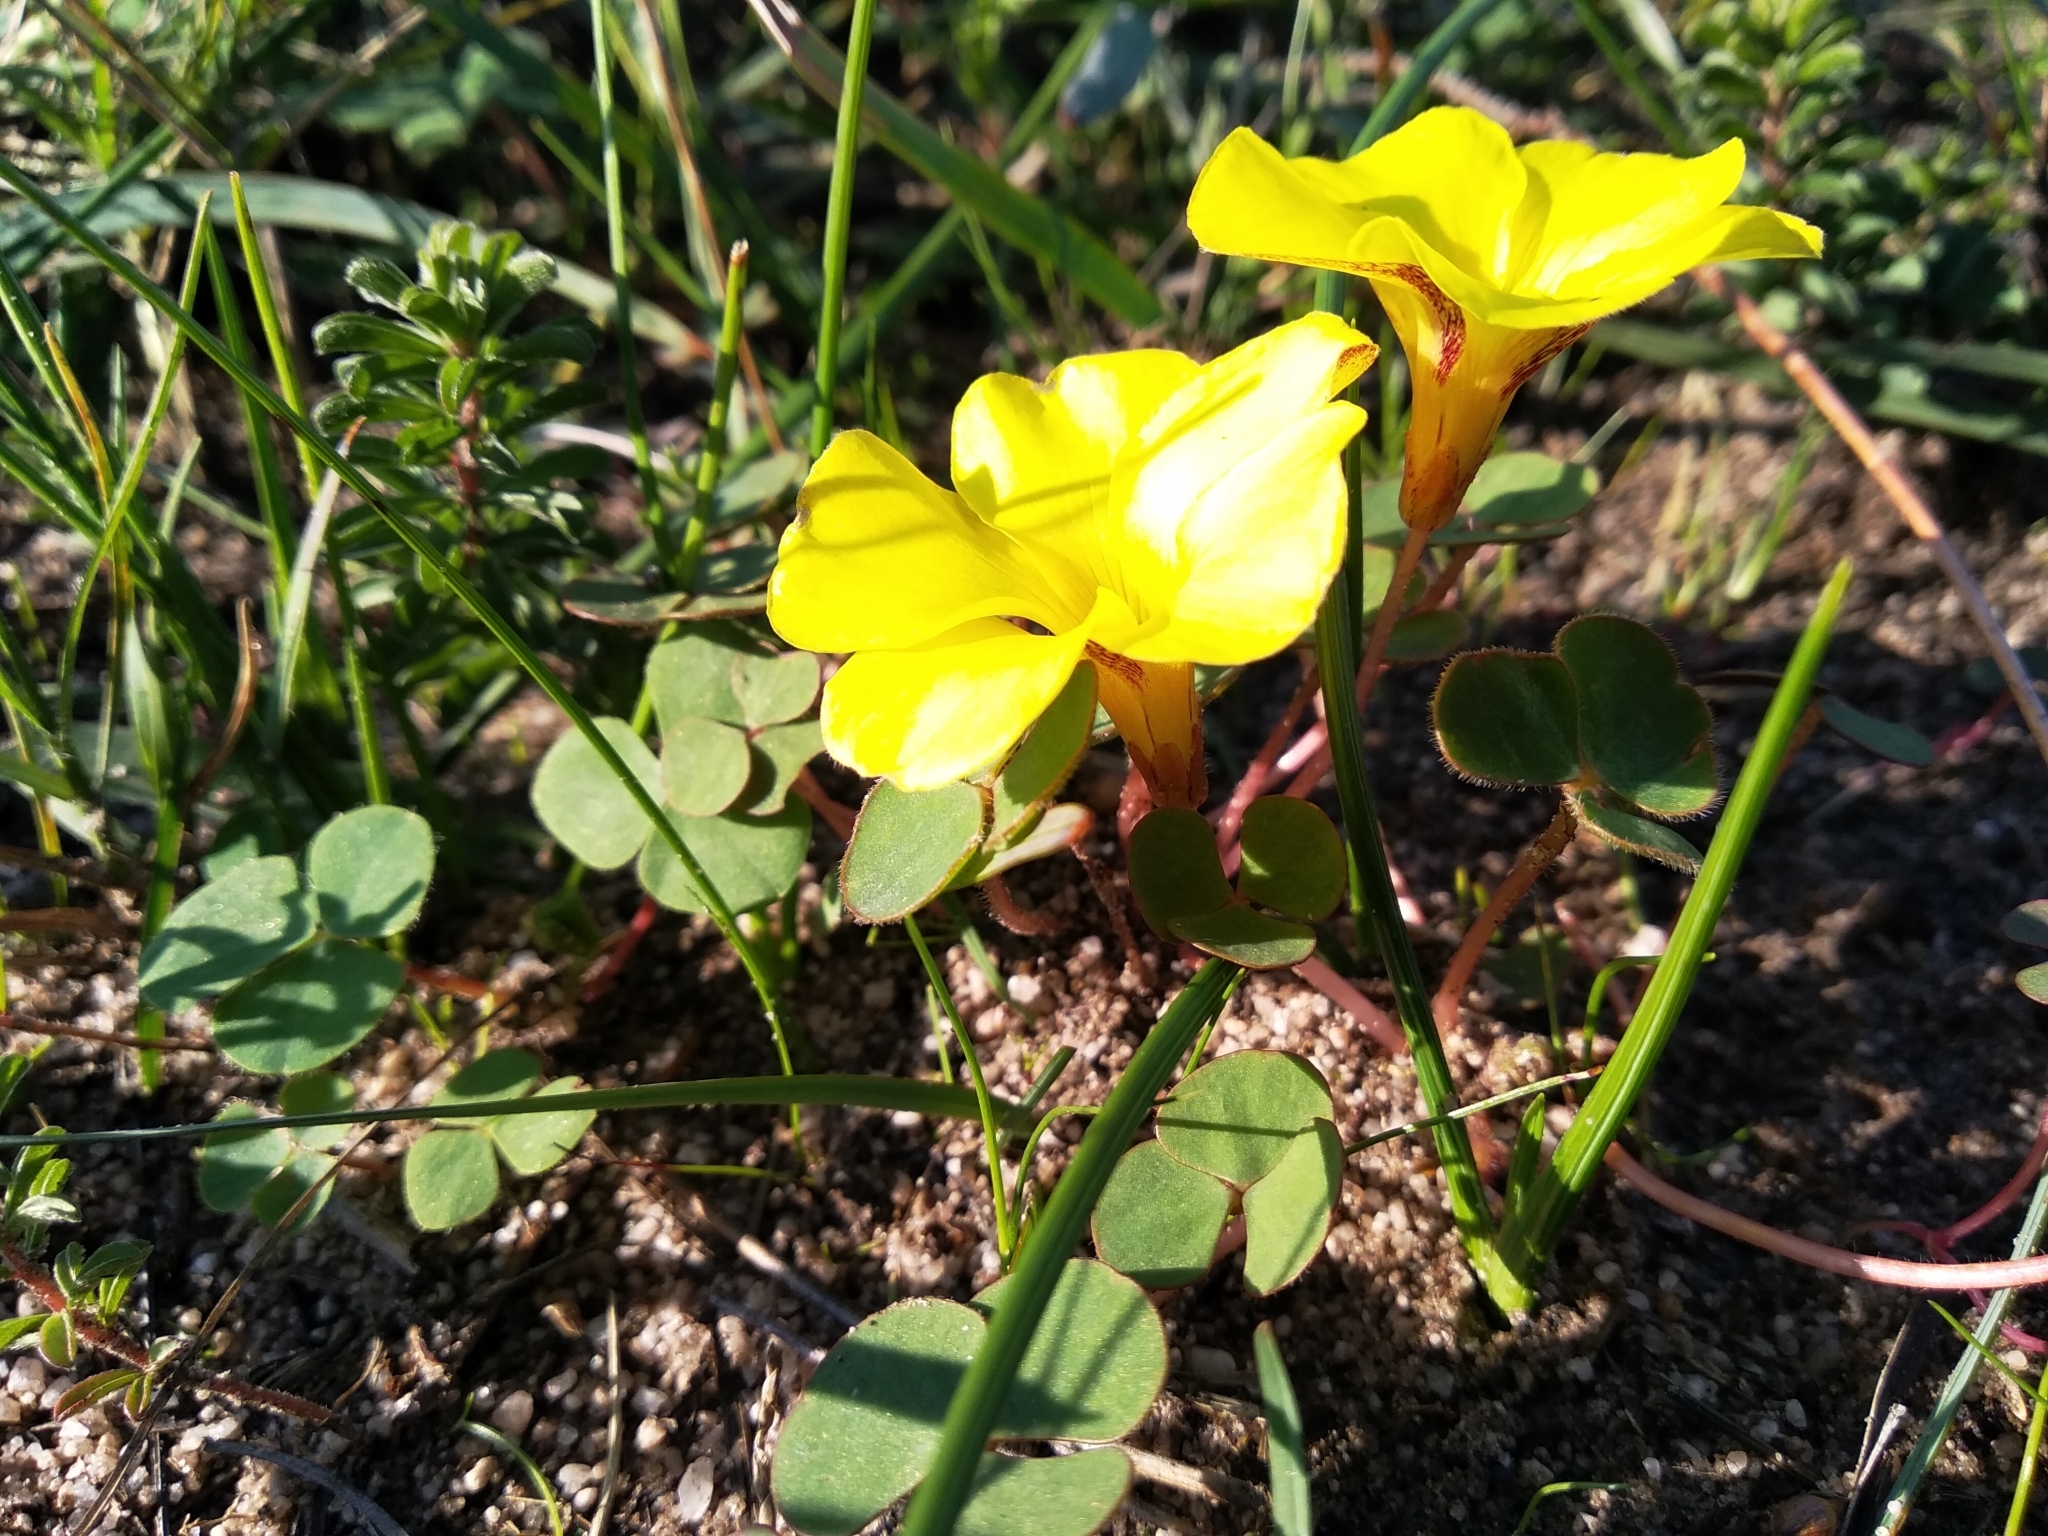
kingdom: Plantae
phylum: Tracheophyta
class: Magnoliopsida
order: Oxalidales
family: Oxalidaceae
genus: Oxalis
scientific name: Oxalis luteola
